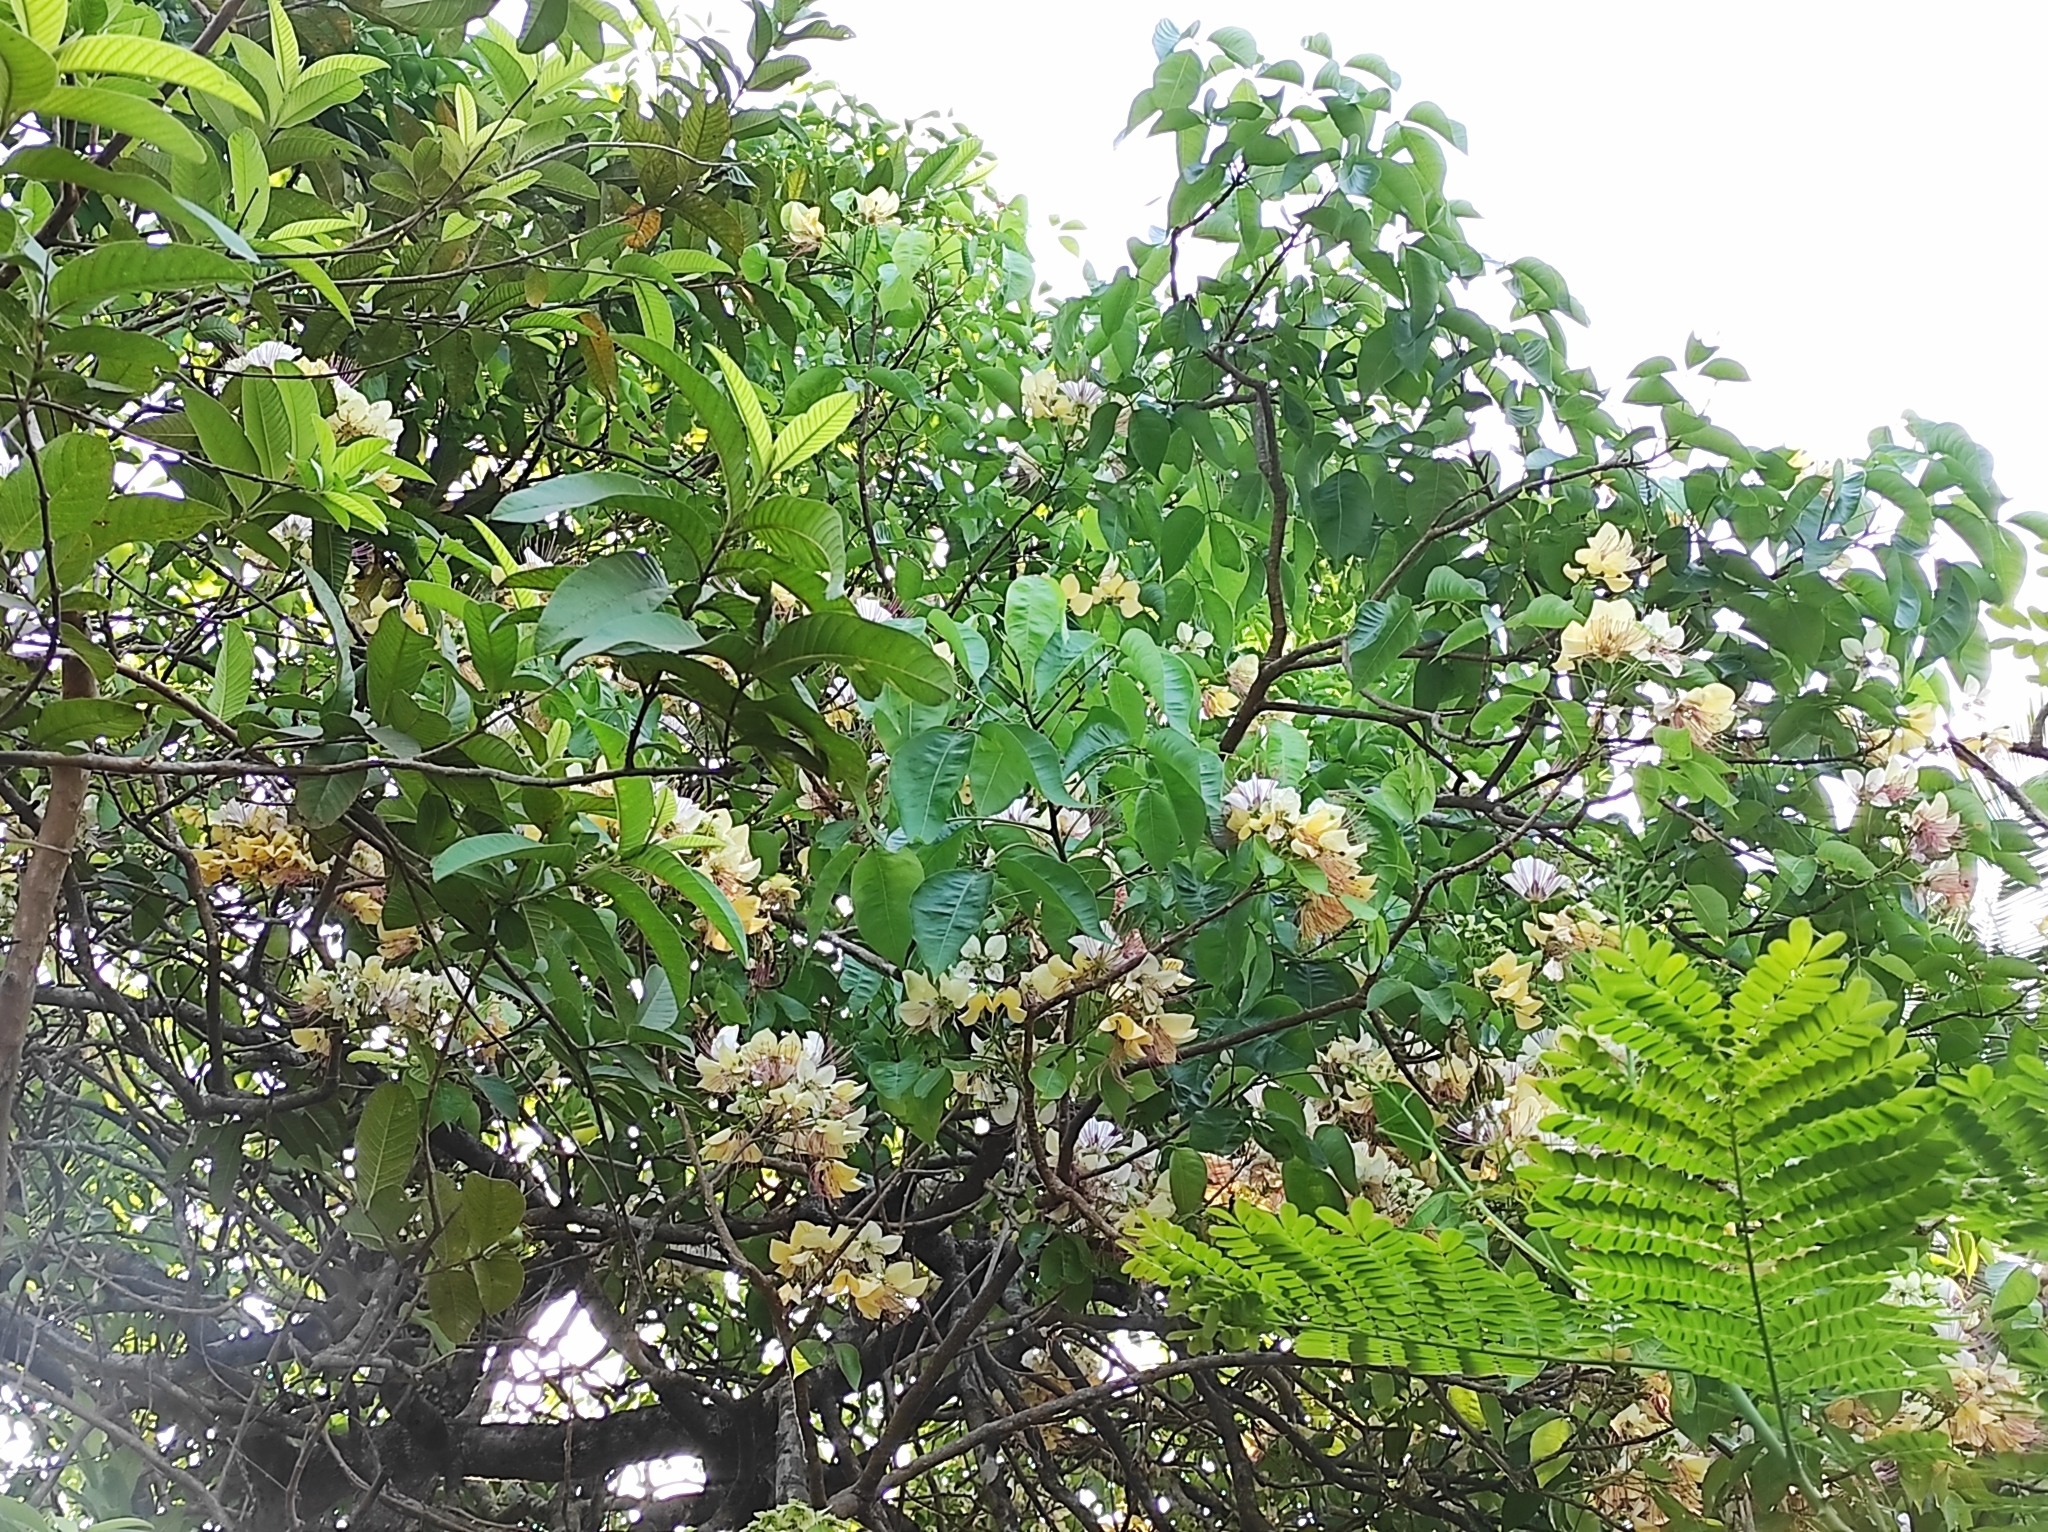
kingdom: Plantae
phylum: Tracheophyta
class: Magnoliopsida
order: Brassicales
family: Capparaceae
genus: Crateva
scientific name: Crateva magna
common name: Three-leaf-caper
